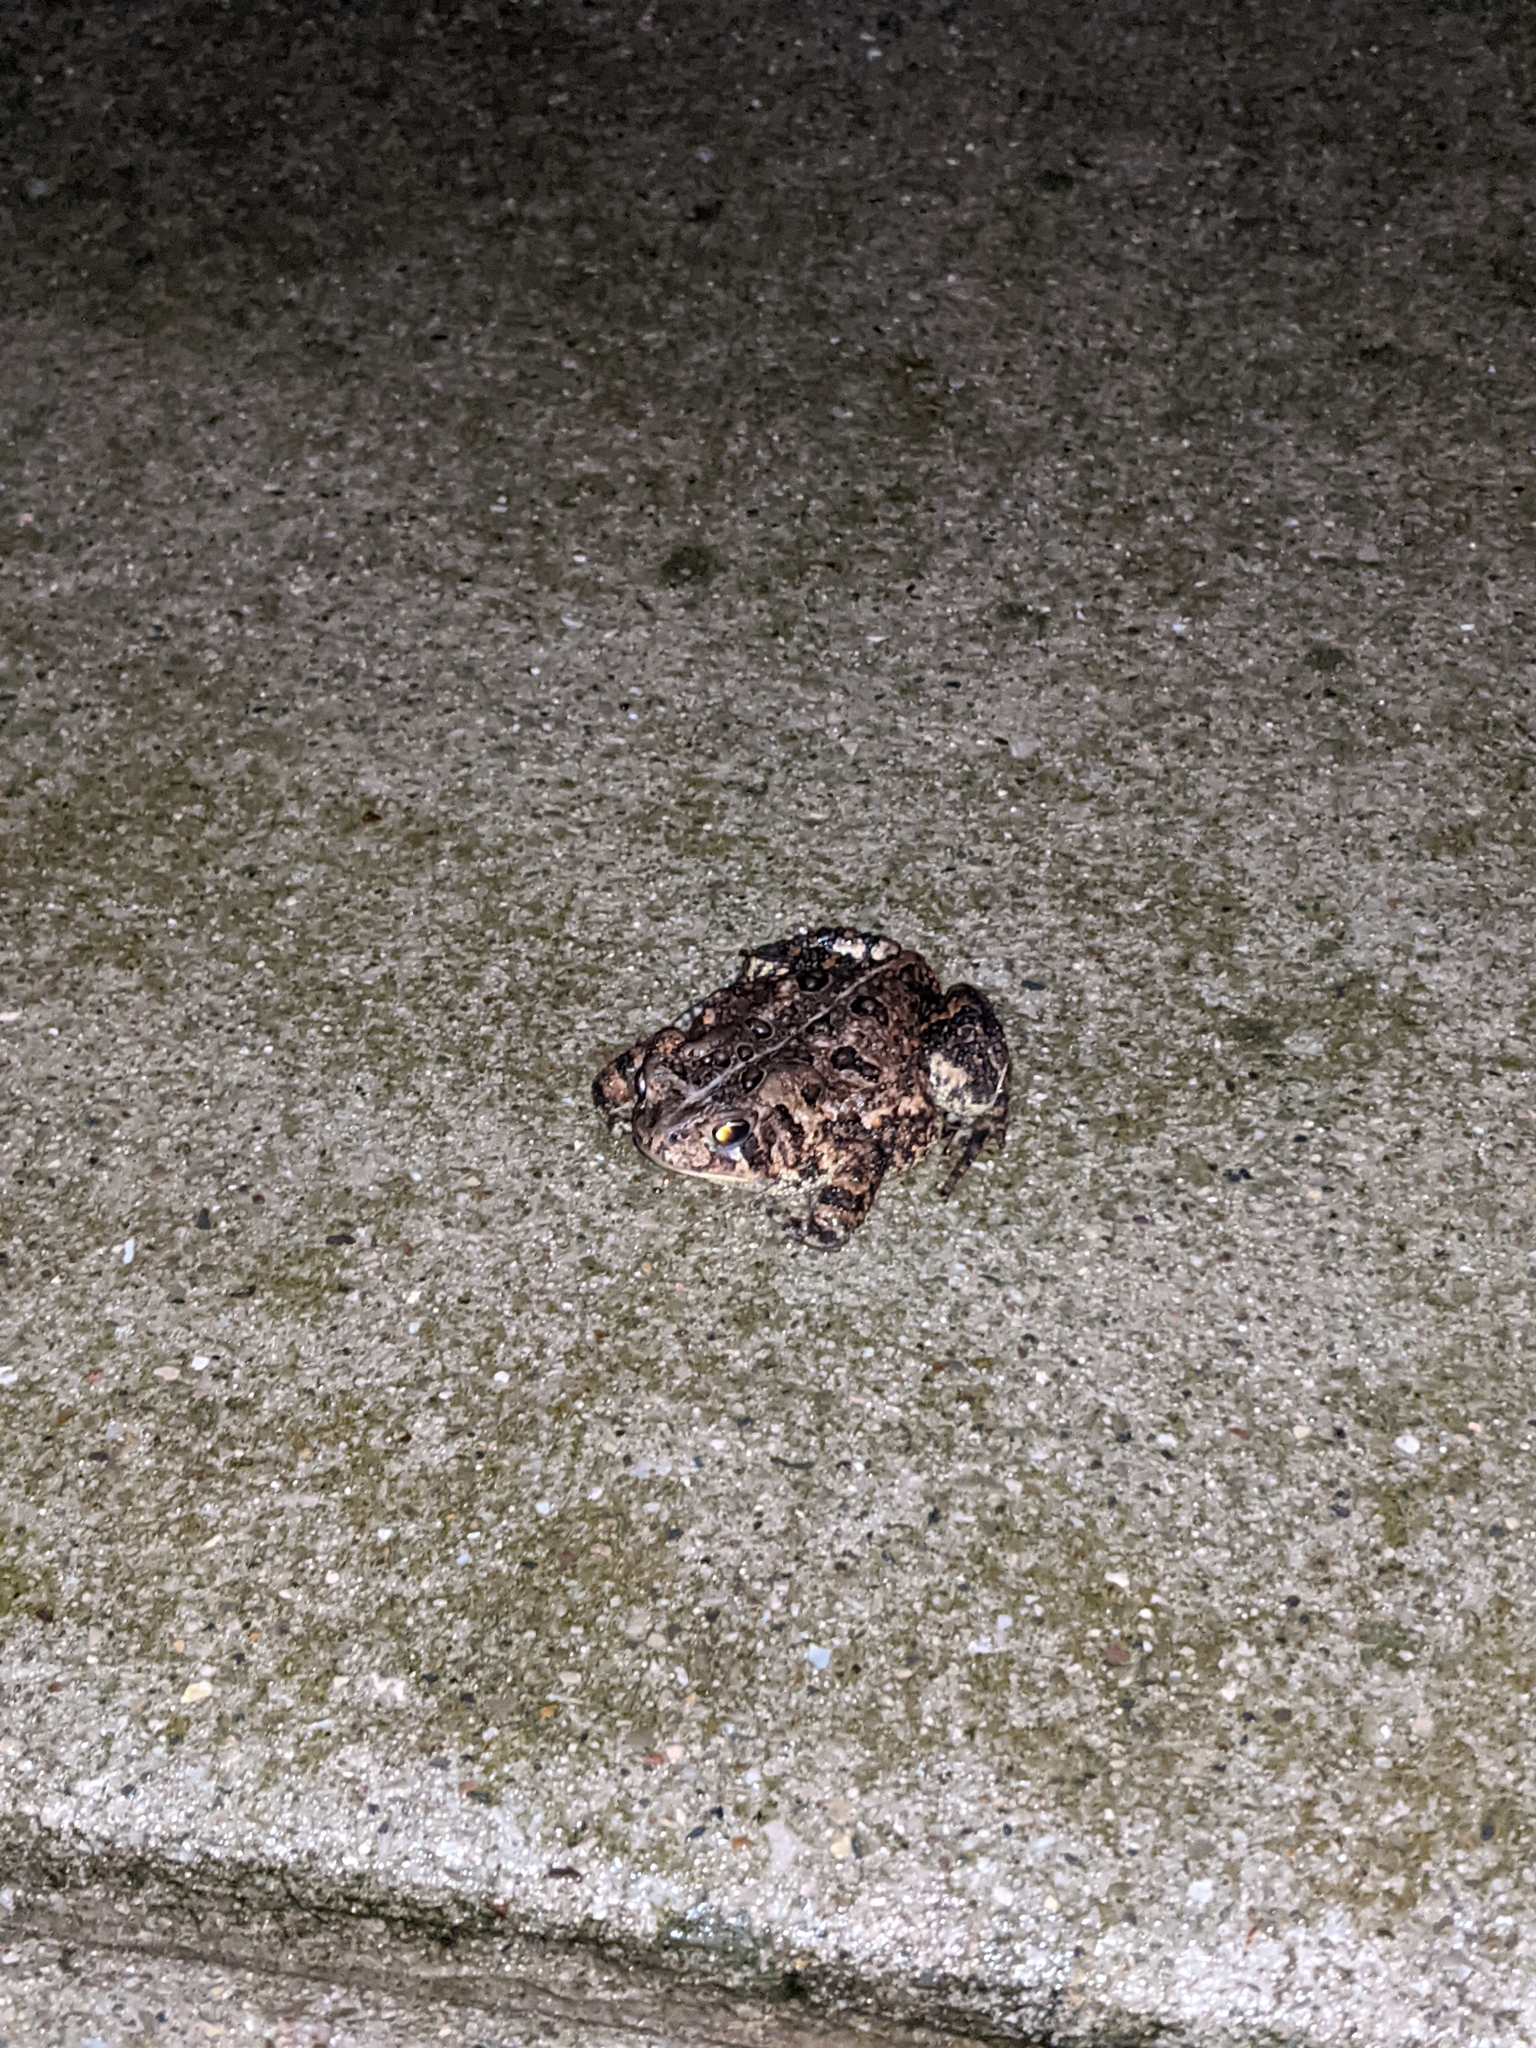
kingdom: Animalia
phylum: Chordata
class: Amphibia
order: Anura
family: Bufonidae
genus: Anaxyrus
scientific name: Anaxyrus americanus
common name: American toad
